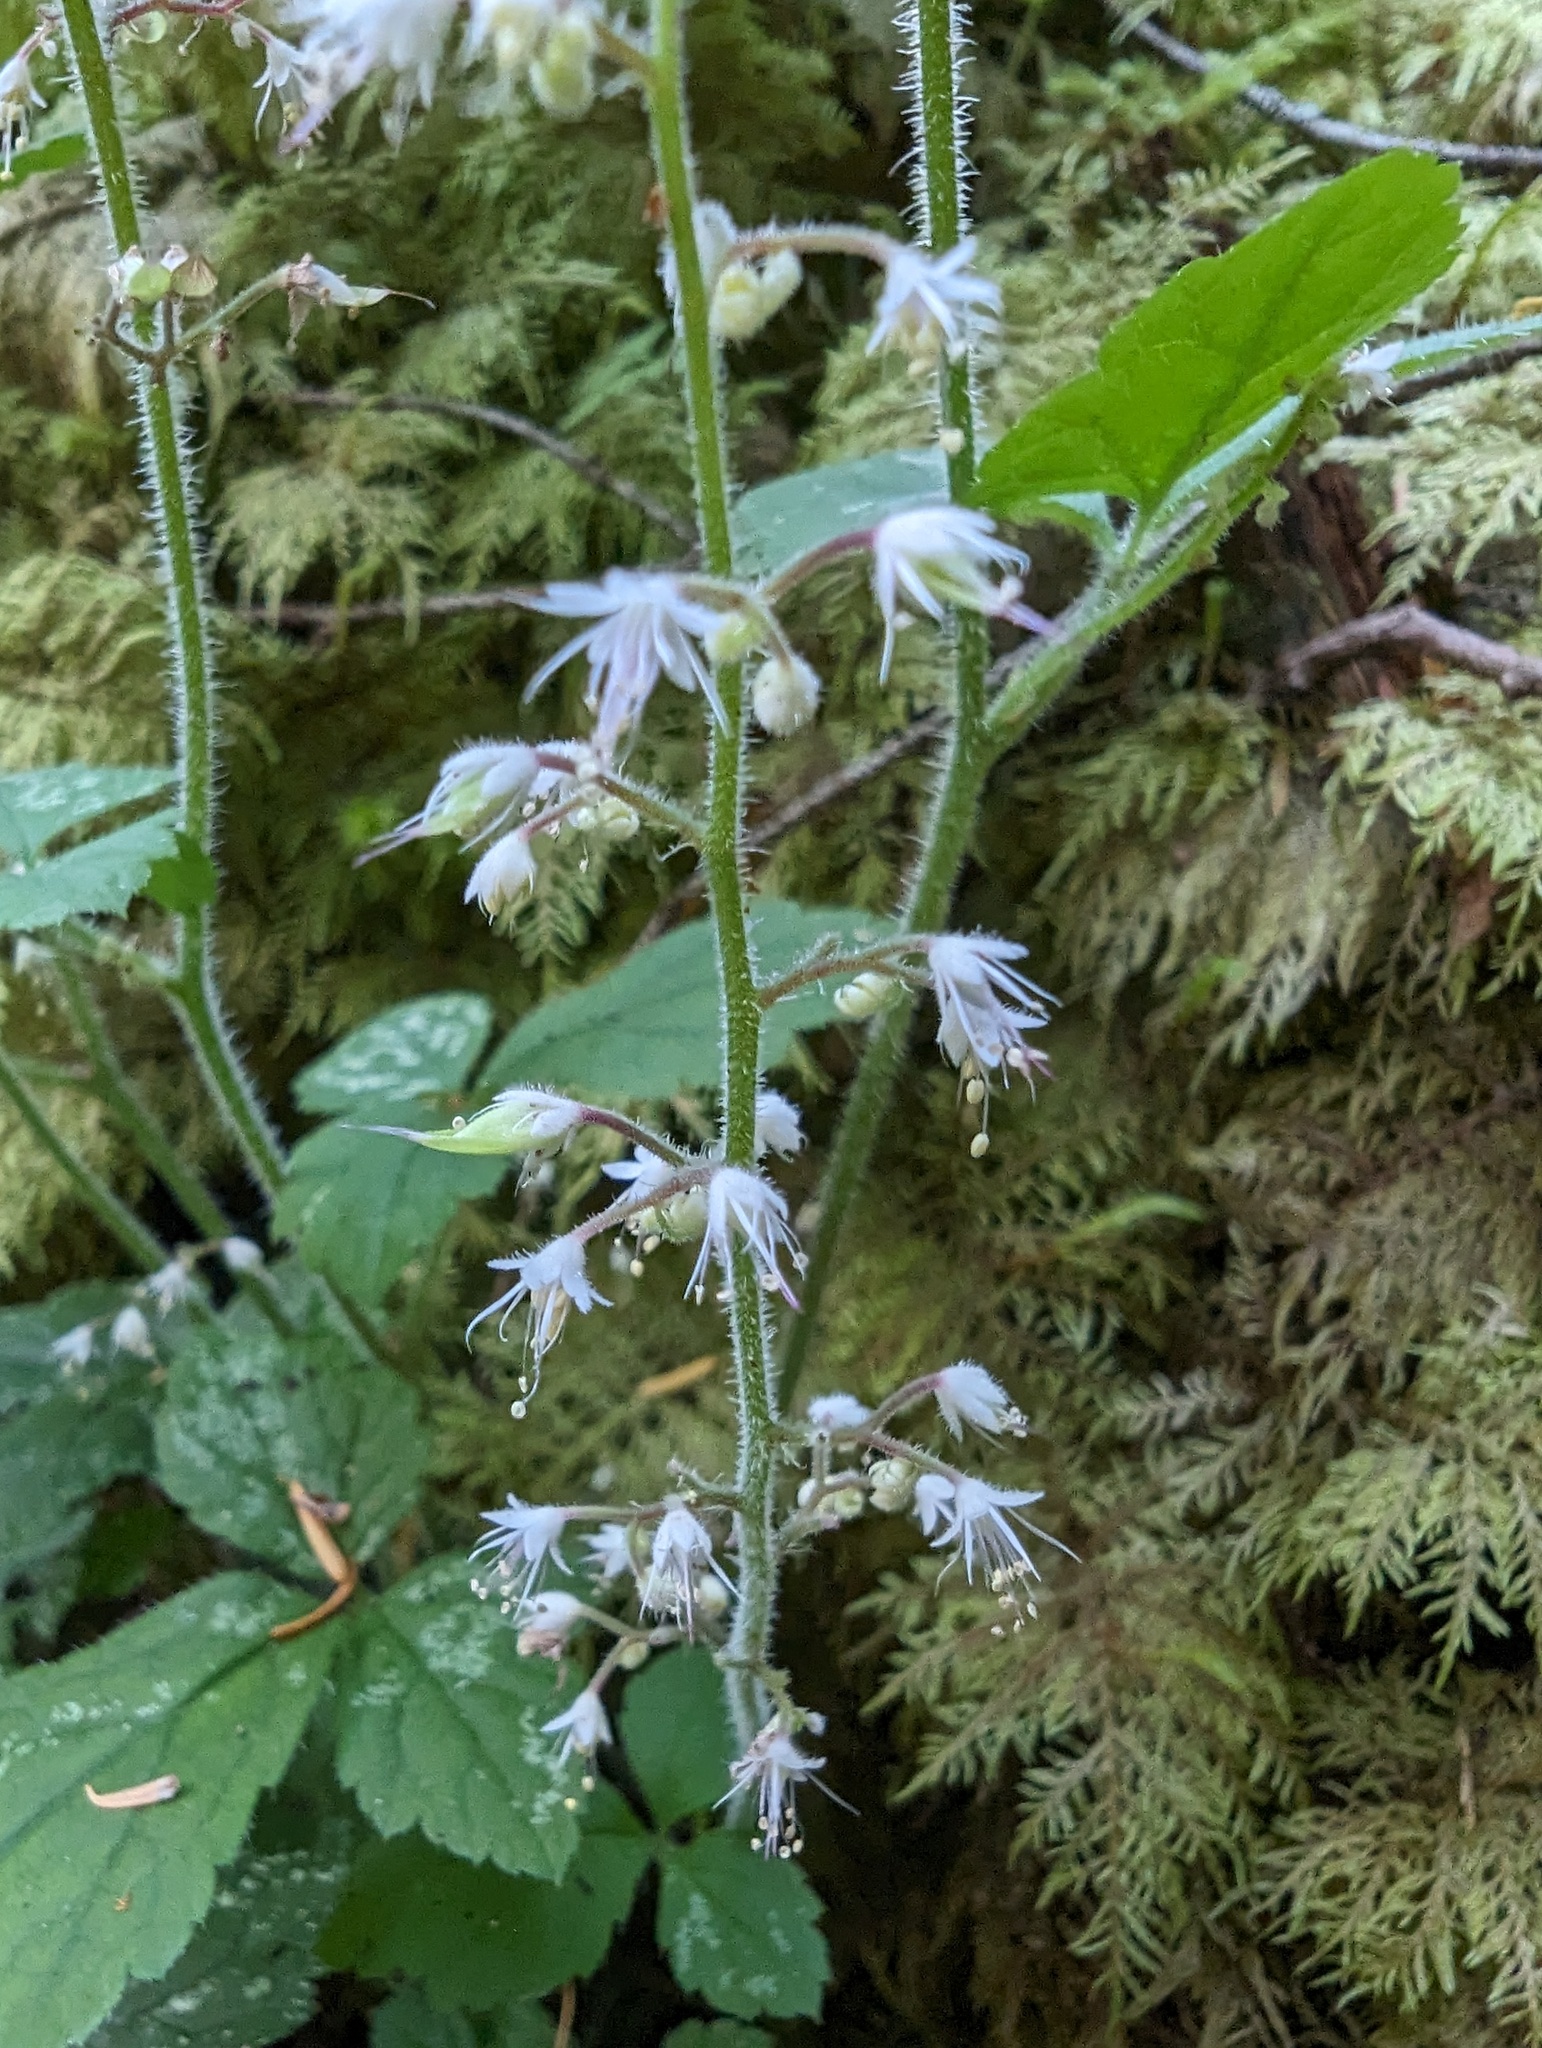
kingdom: Plantae
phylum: Tracheophyta
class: Magnoliopsida
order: Saxifragales
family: Saxifragaceae
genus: Tiarella
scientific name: Tiarella trifoliata
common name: Sugar-scoop
